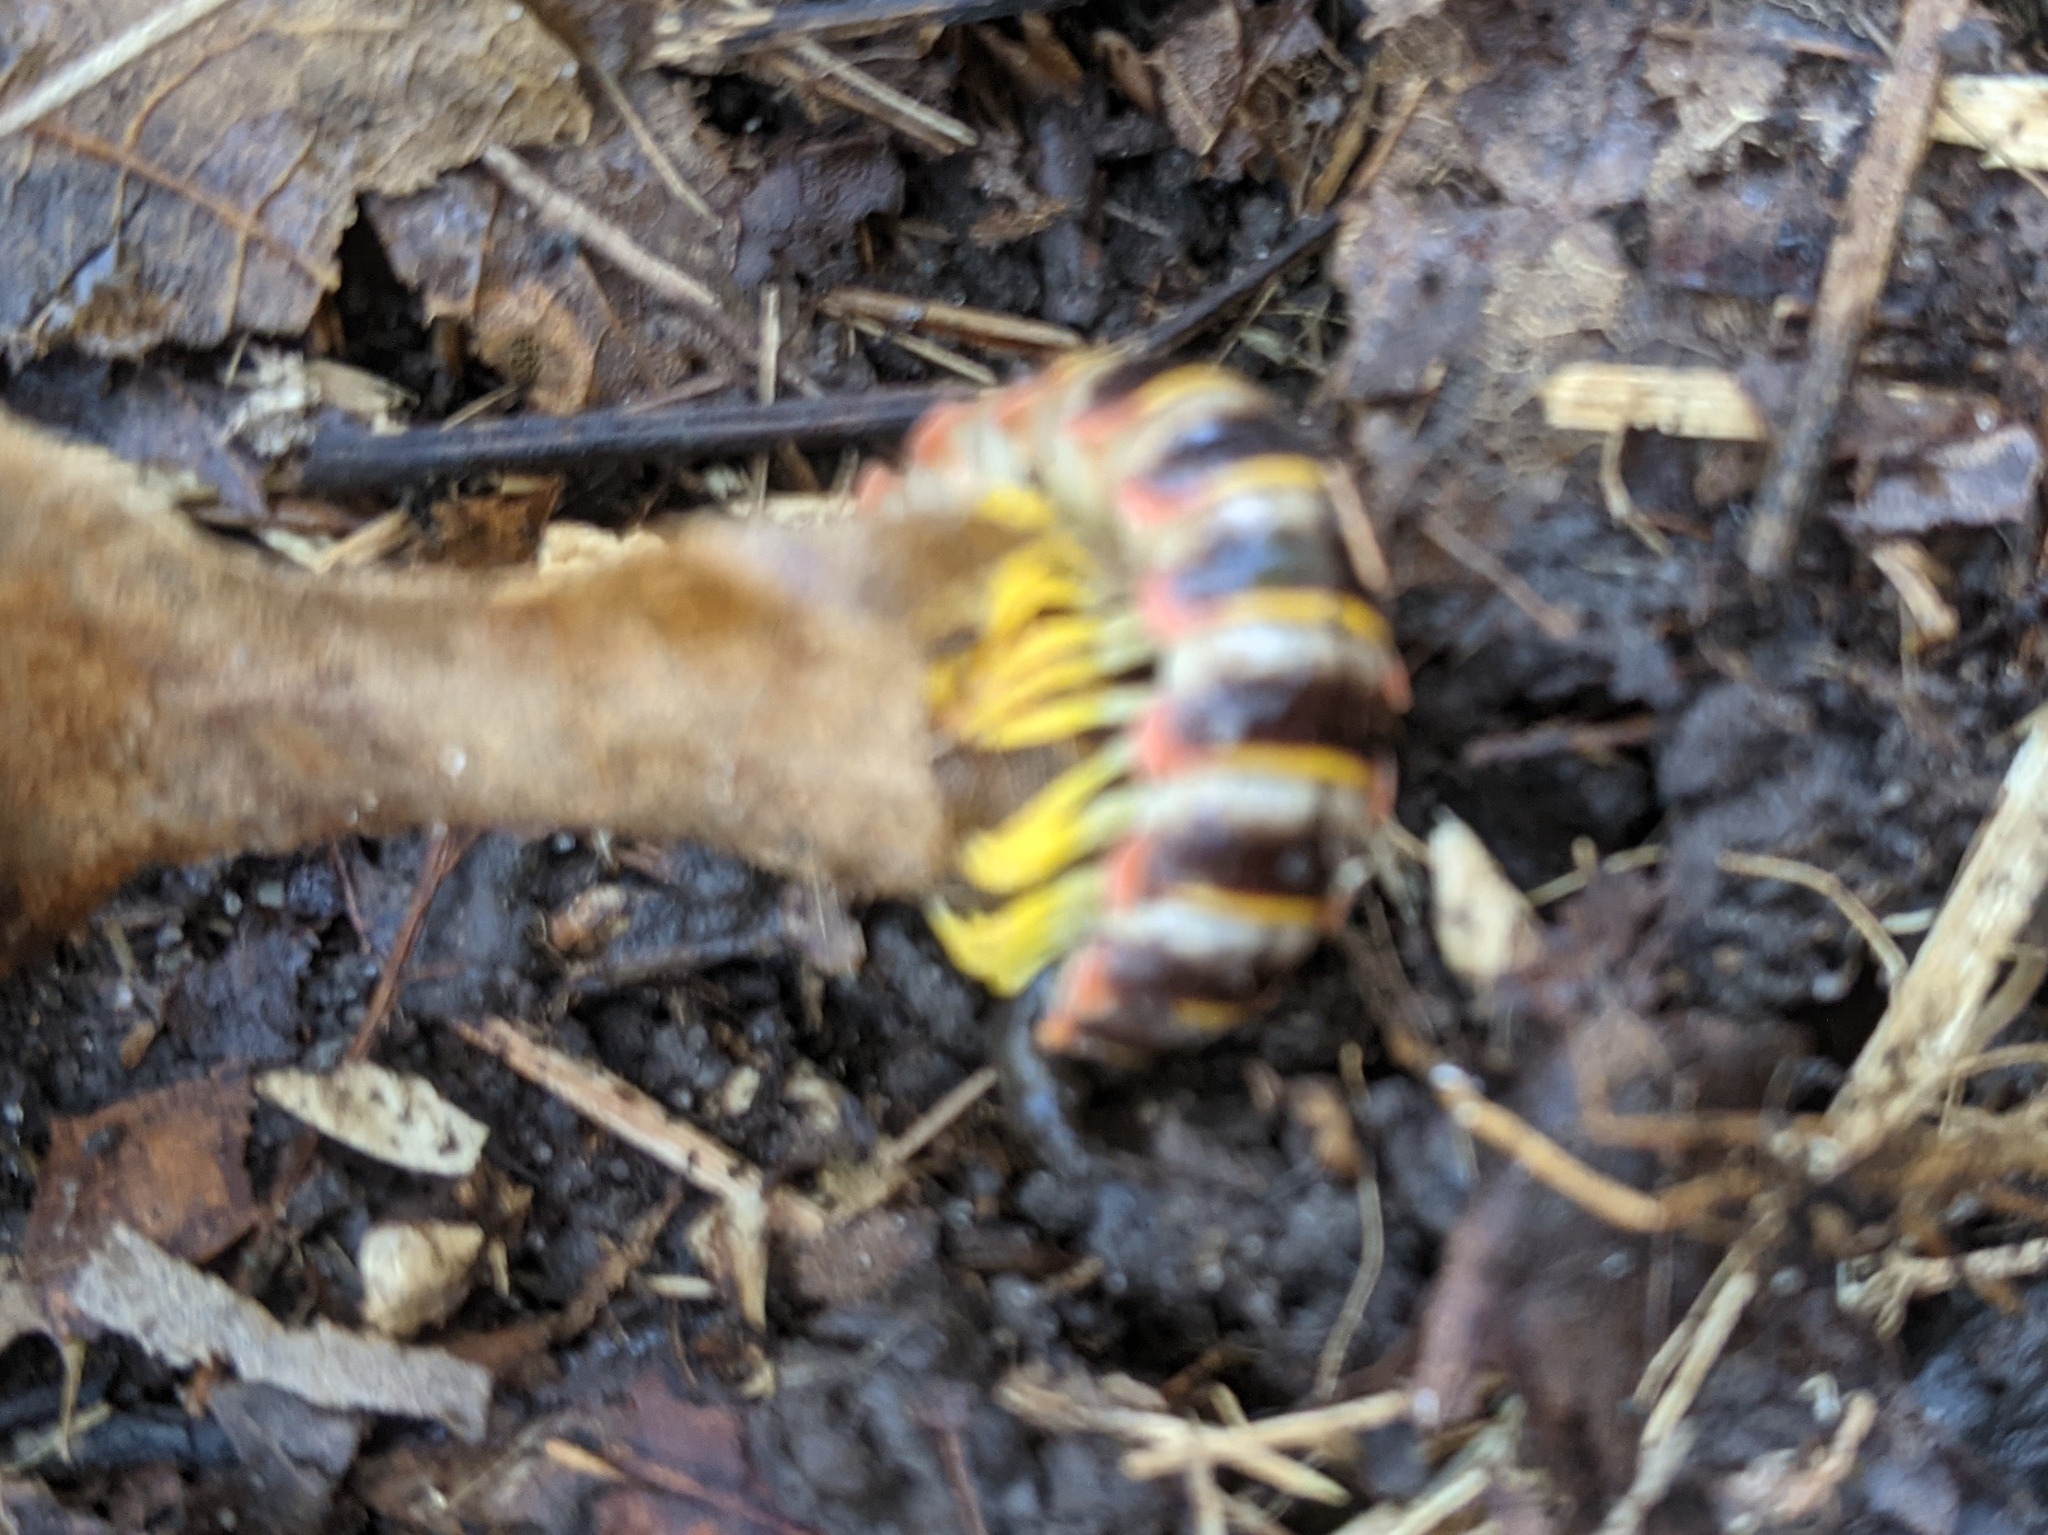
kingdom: Animalia
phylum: Arthropoda
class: Diplopoda
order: Polydesmida
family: Xystodesmidae
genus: Apheloria
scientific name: Apheloria virginiensis
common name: Black-and-gold flat millipede
